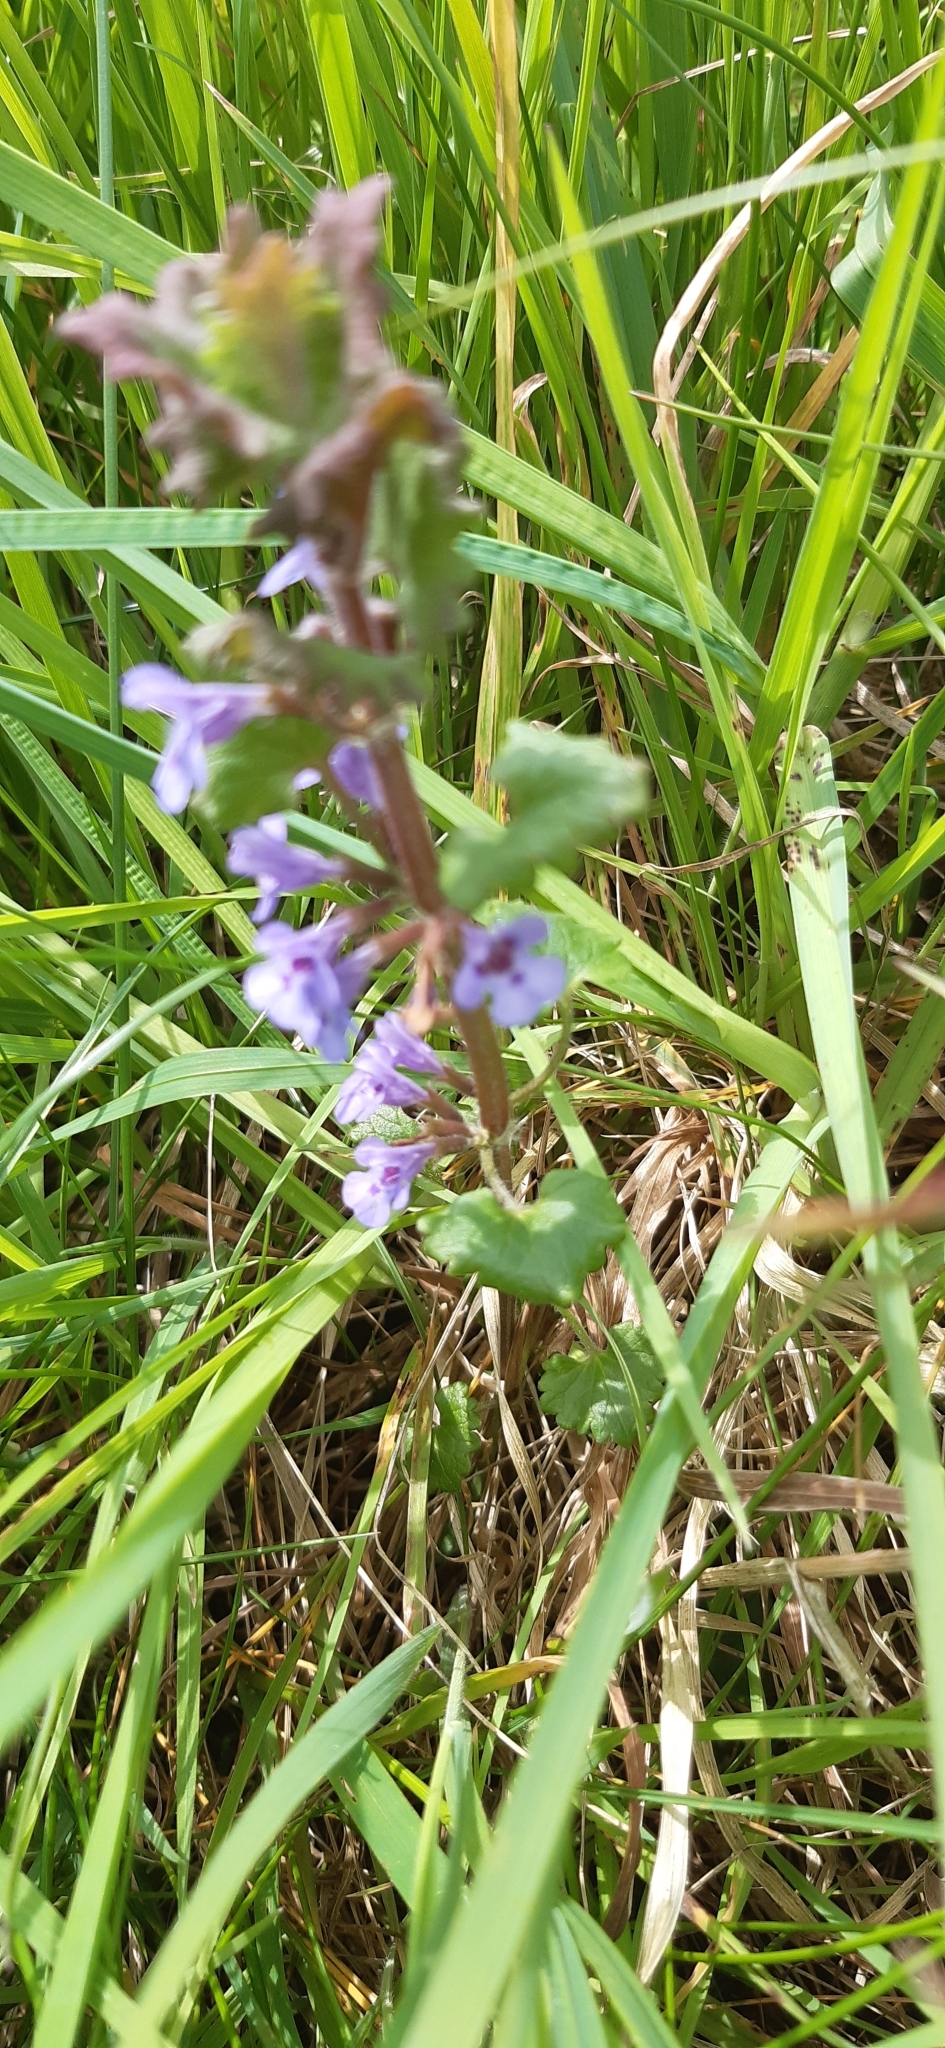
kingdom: Plantae
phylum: Tracheophyta
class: Magnoliopsida
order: Lamiales
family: Lamiaceae
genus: Glechoma
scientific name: Glechoma hederacea
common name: Ground ivy
